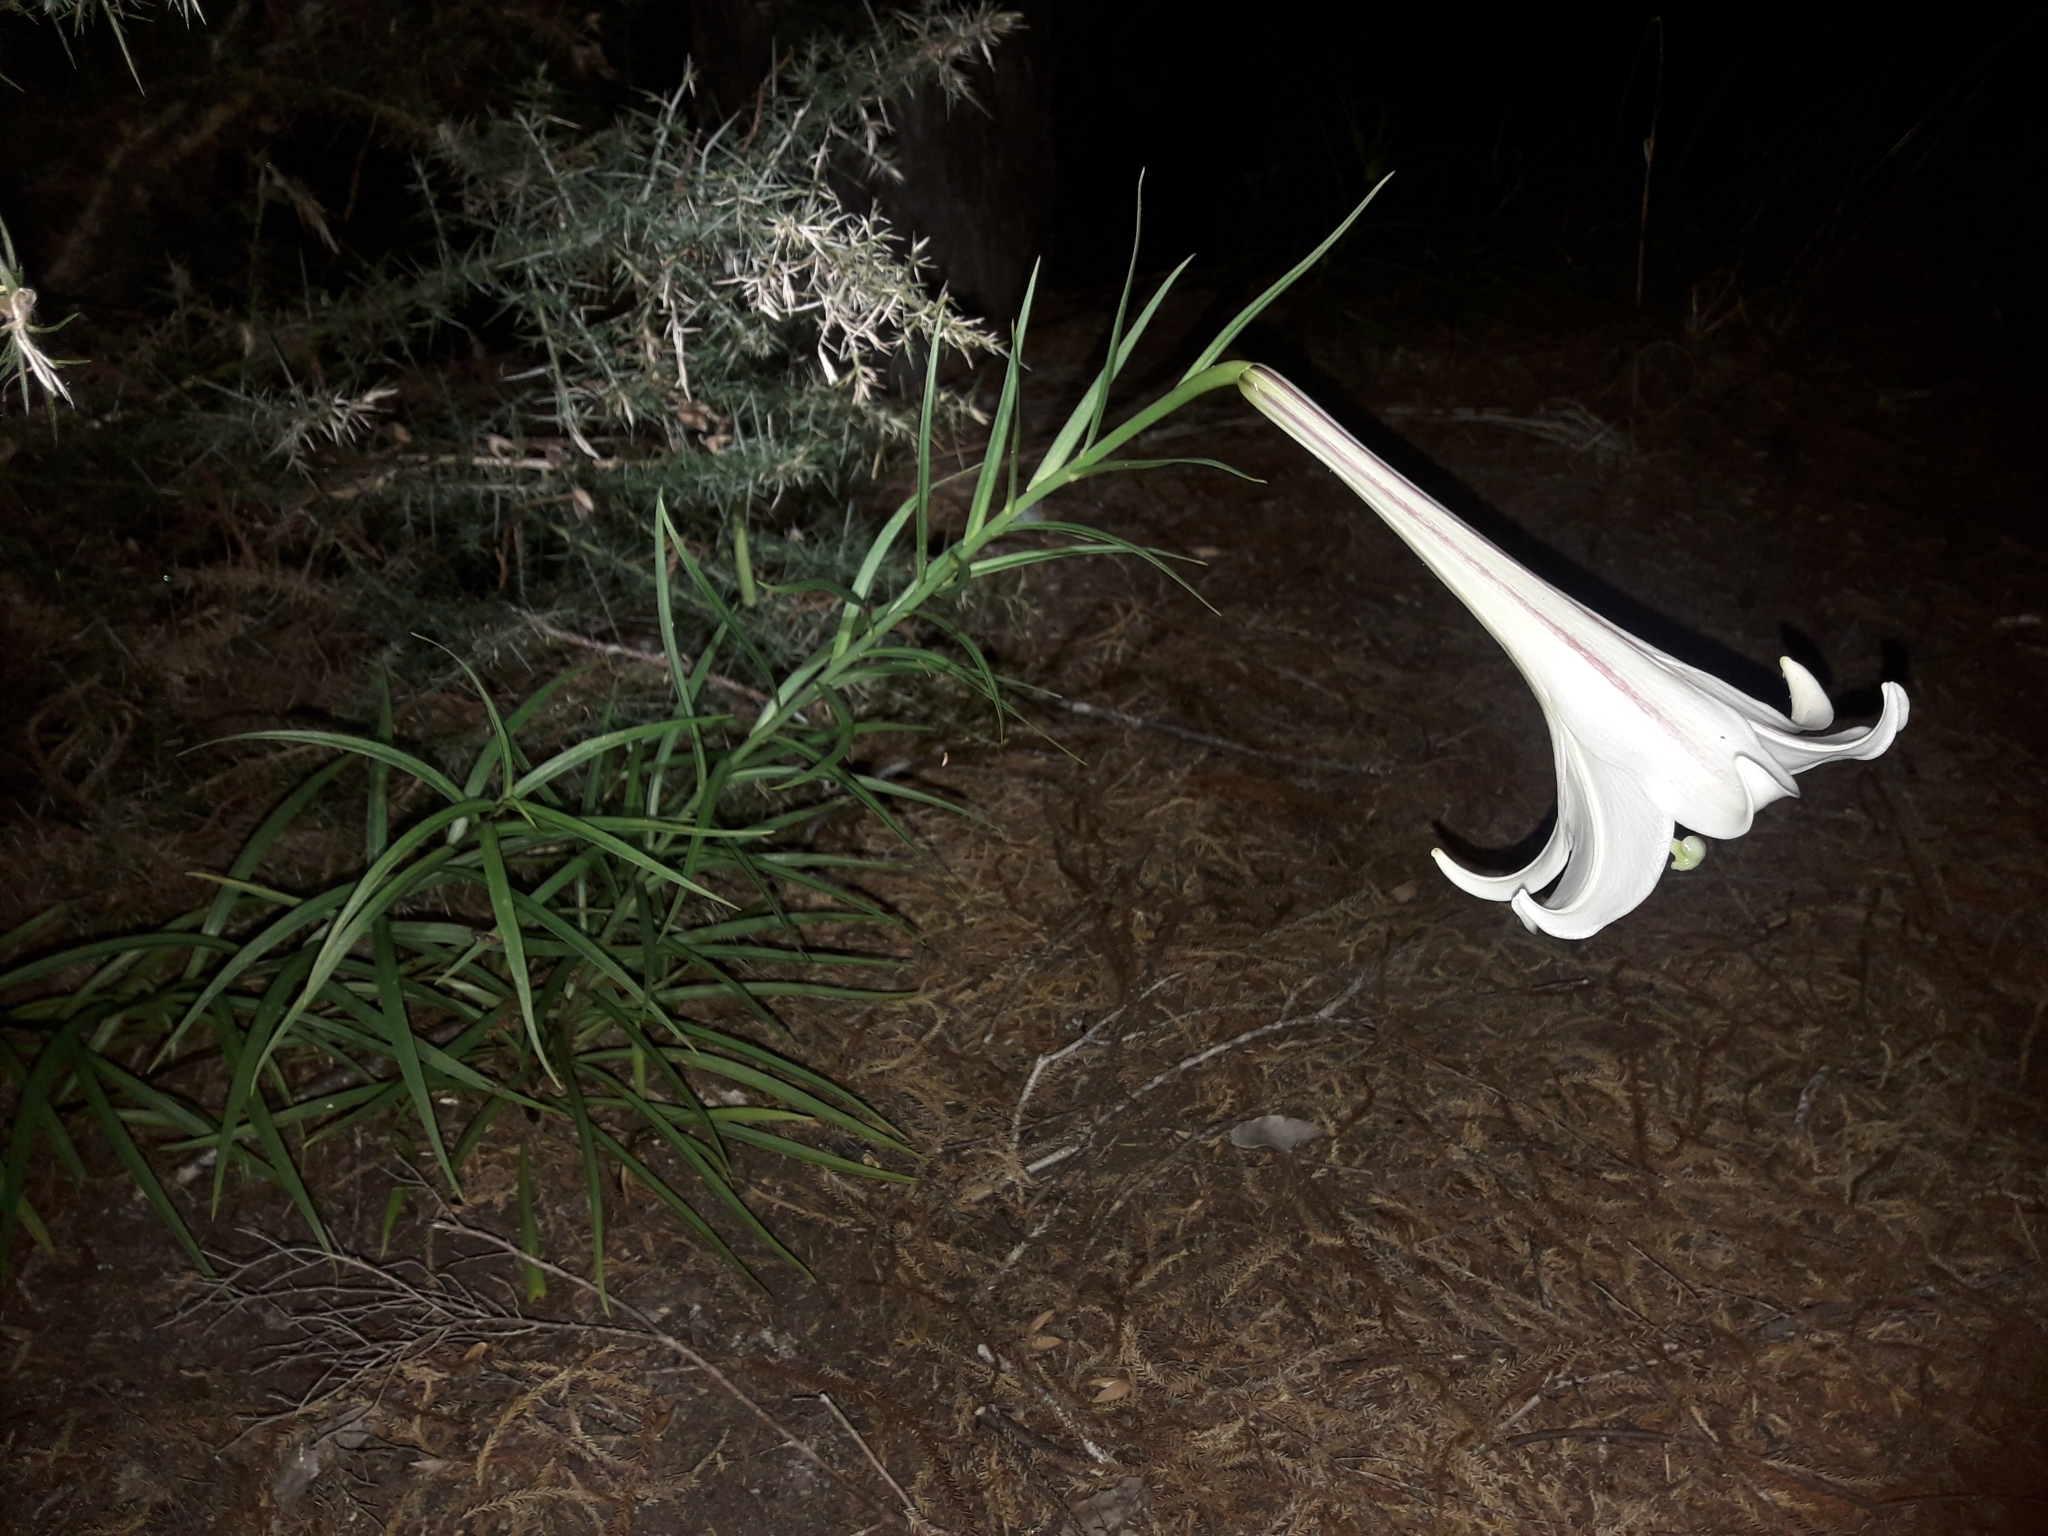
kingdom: Plantae
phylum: Tracheophyta
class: Liliopsida
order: Liliales
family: Liliaceae
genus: Lilium
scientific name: Lilium formosanum
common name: Formosa lily
